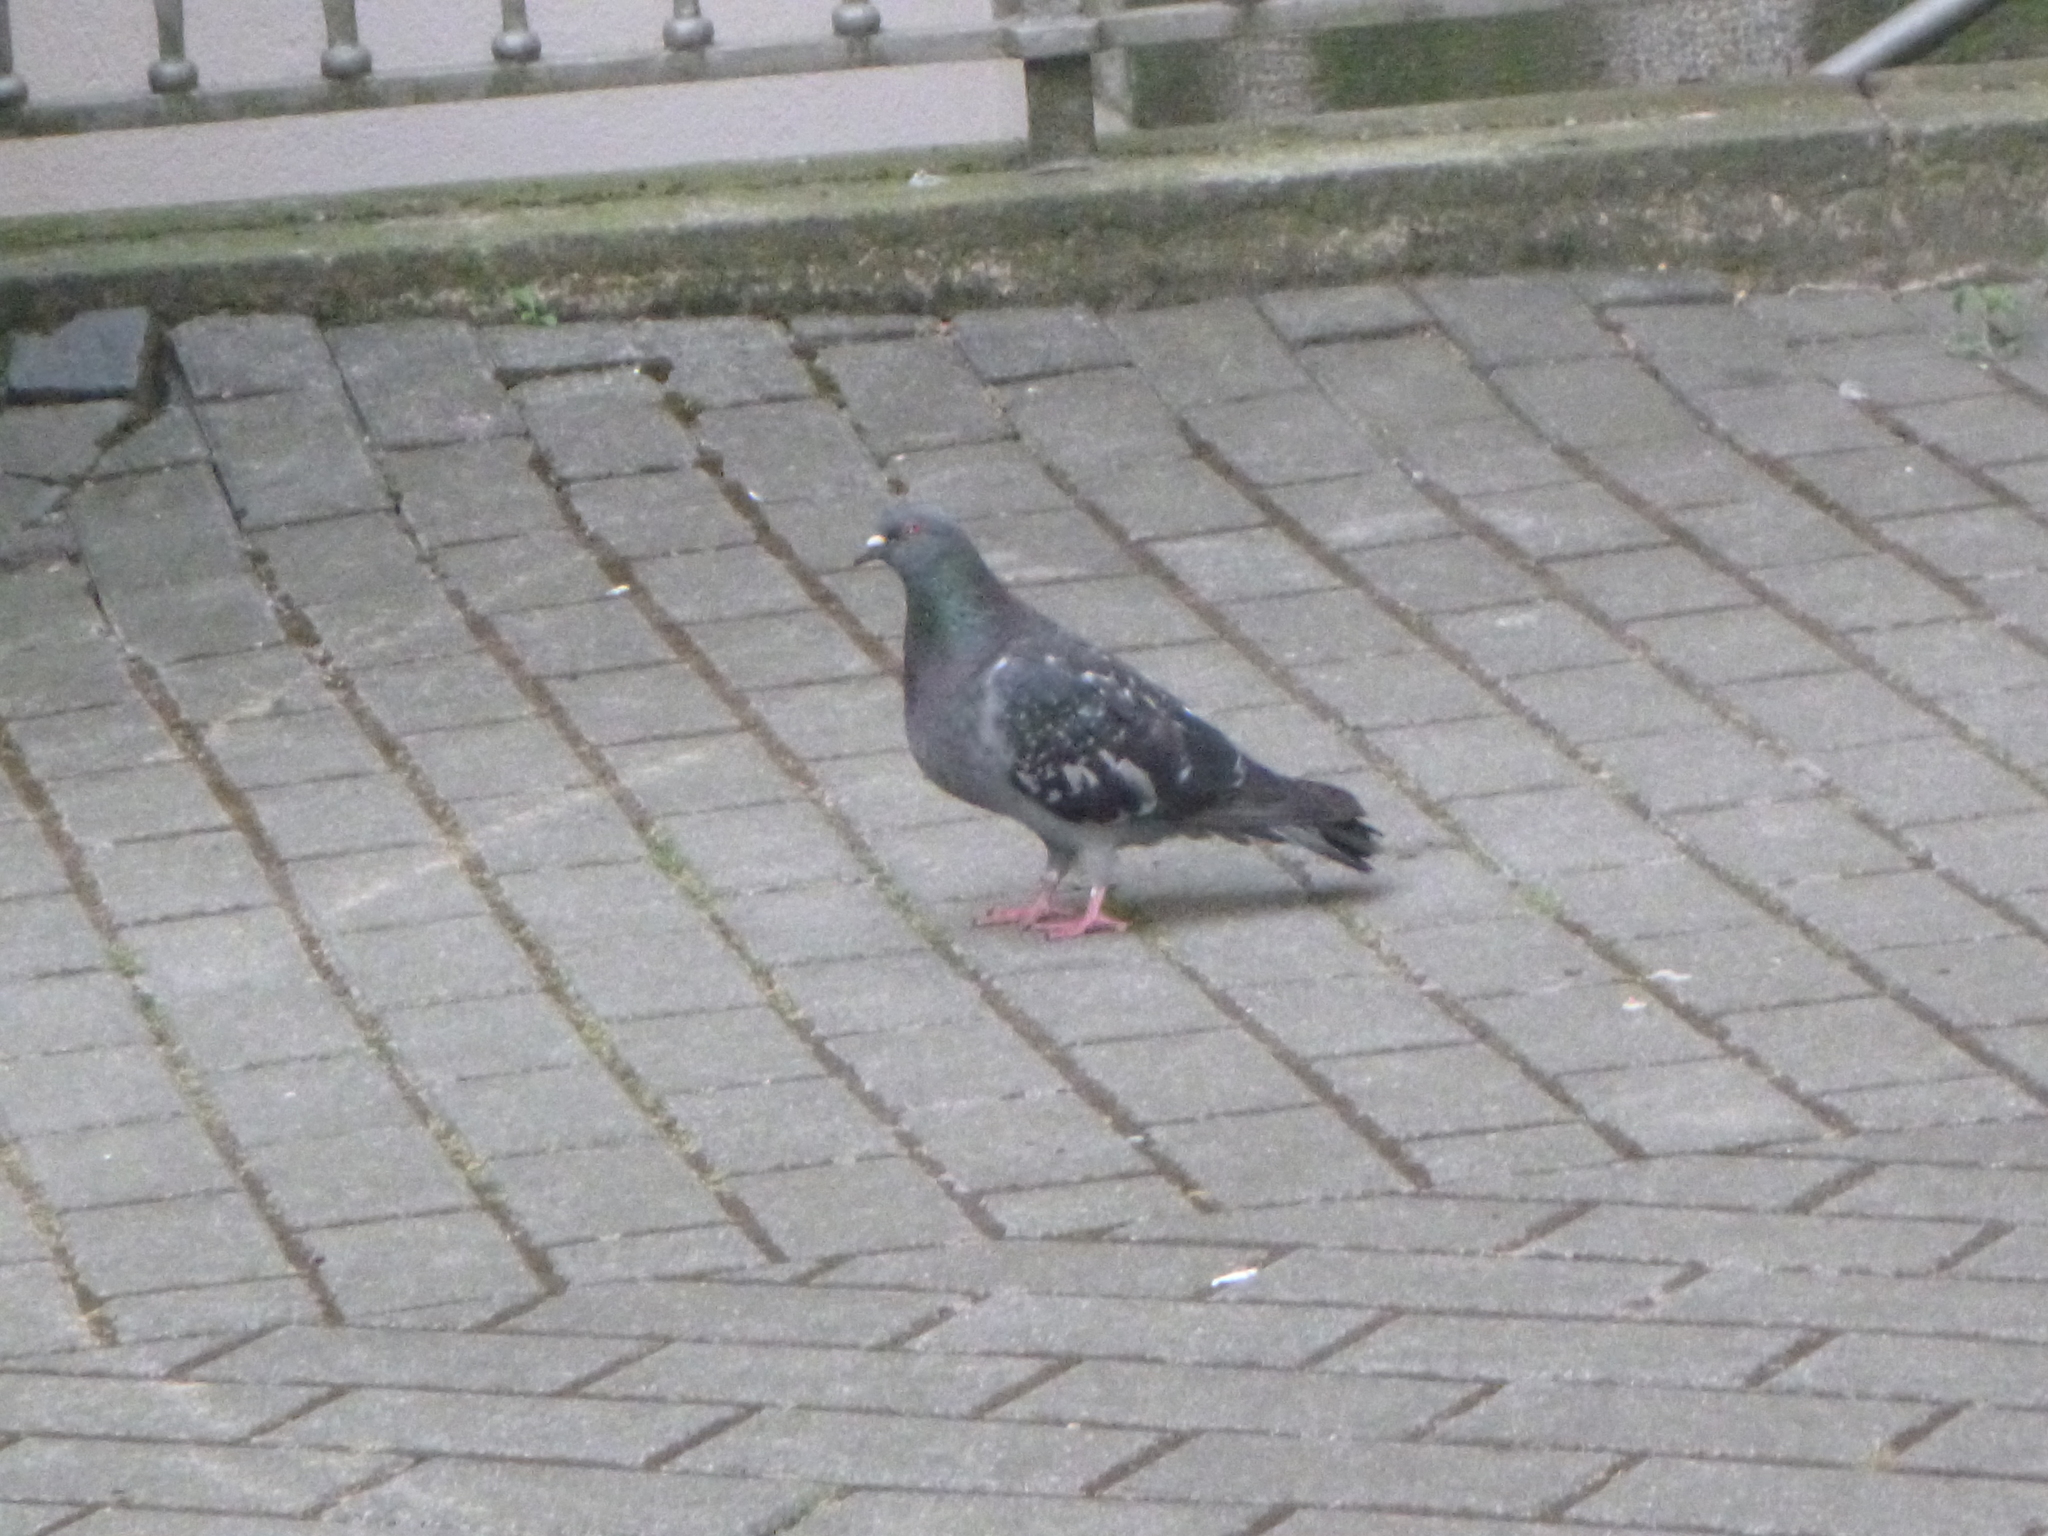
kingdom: Animalia
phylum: Chordata
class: Aves
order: Columbiformes
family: Columbidae
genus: Columba
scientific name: Columba livia
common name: Rock pigeon
